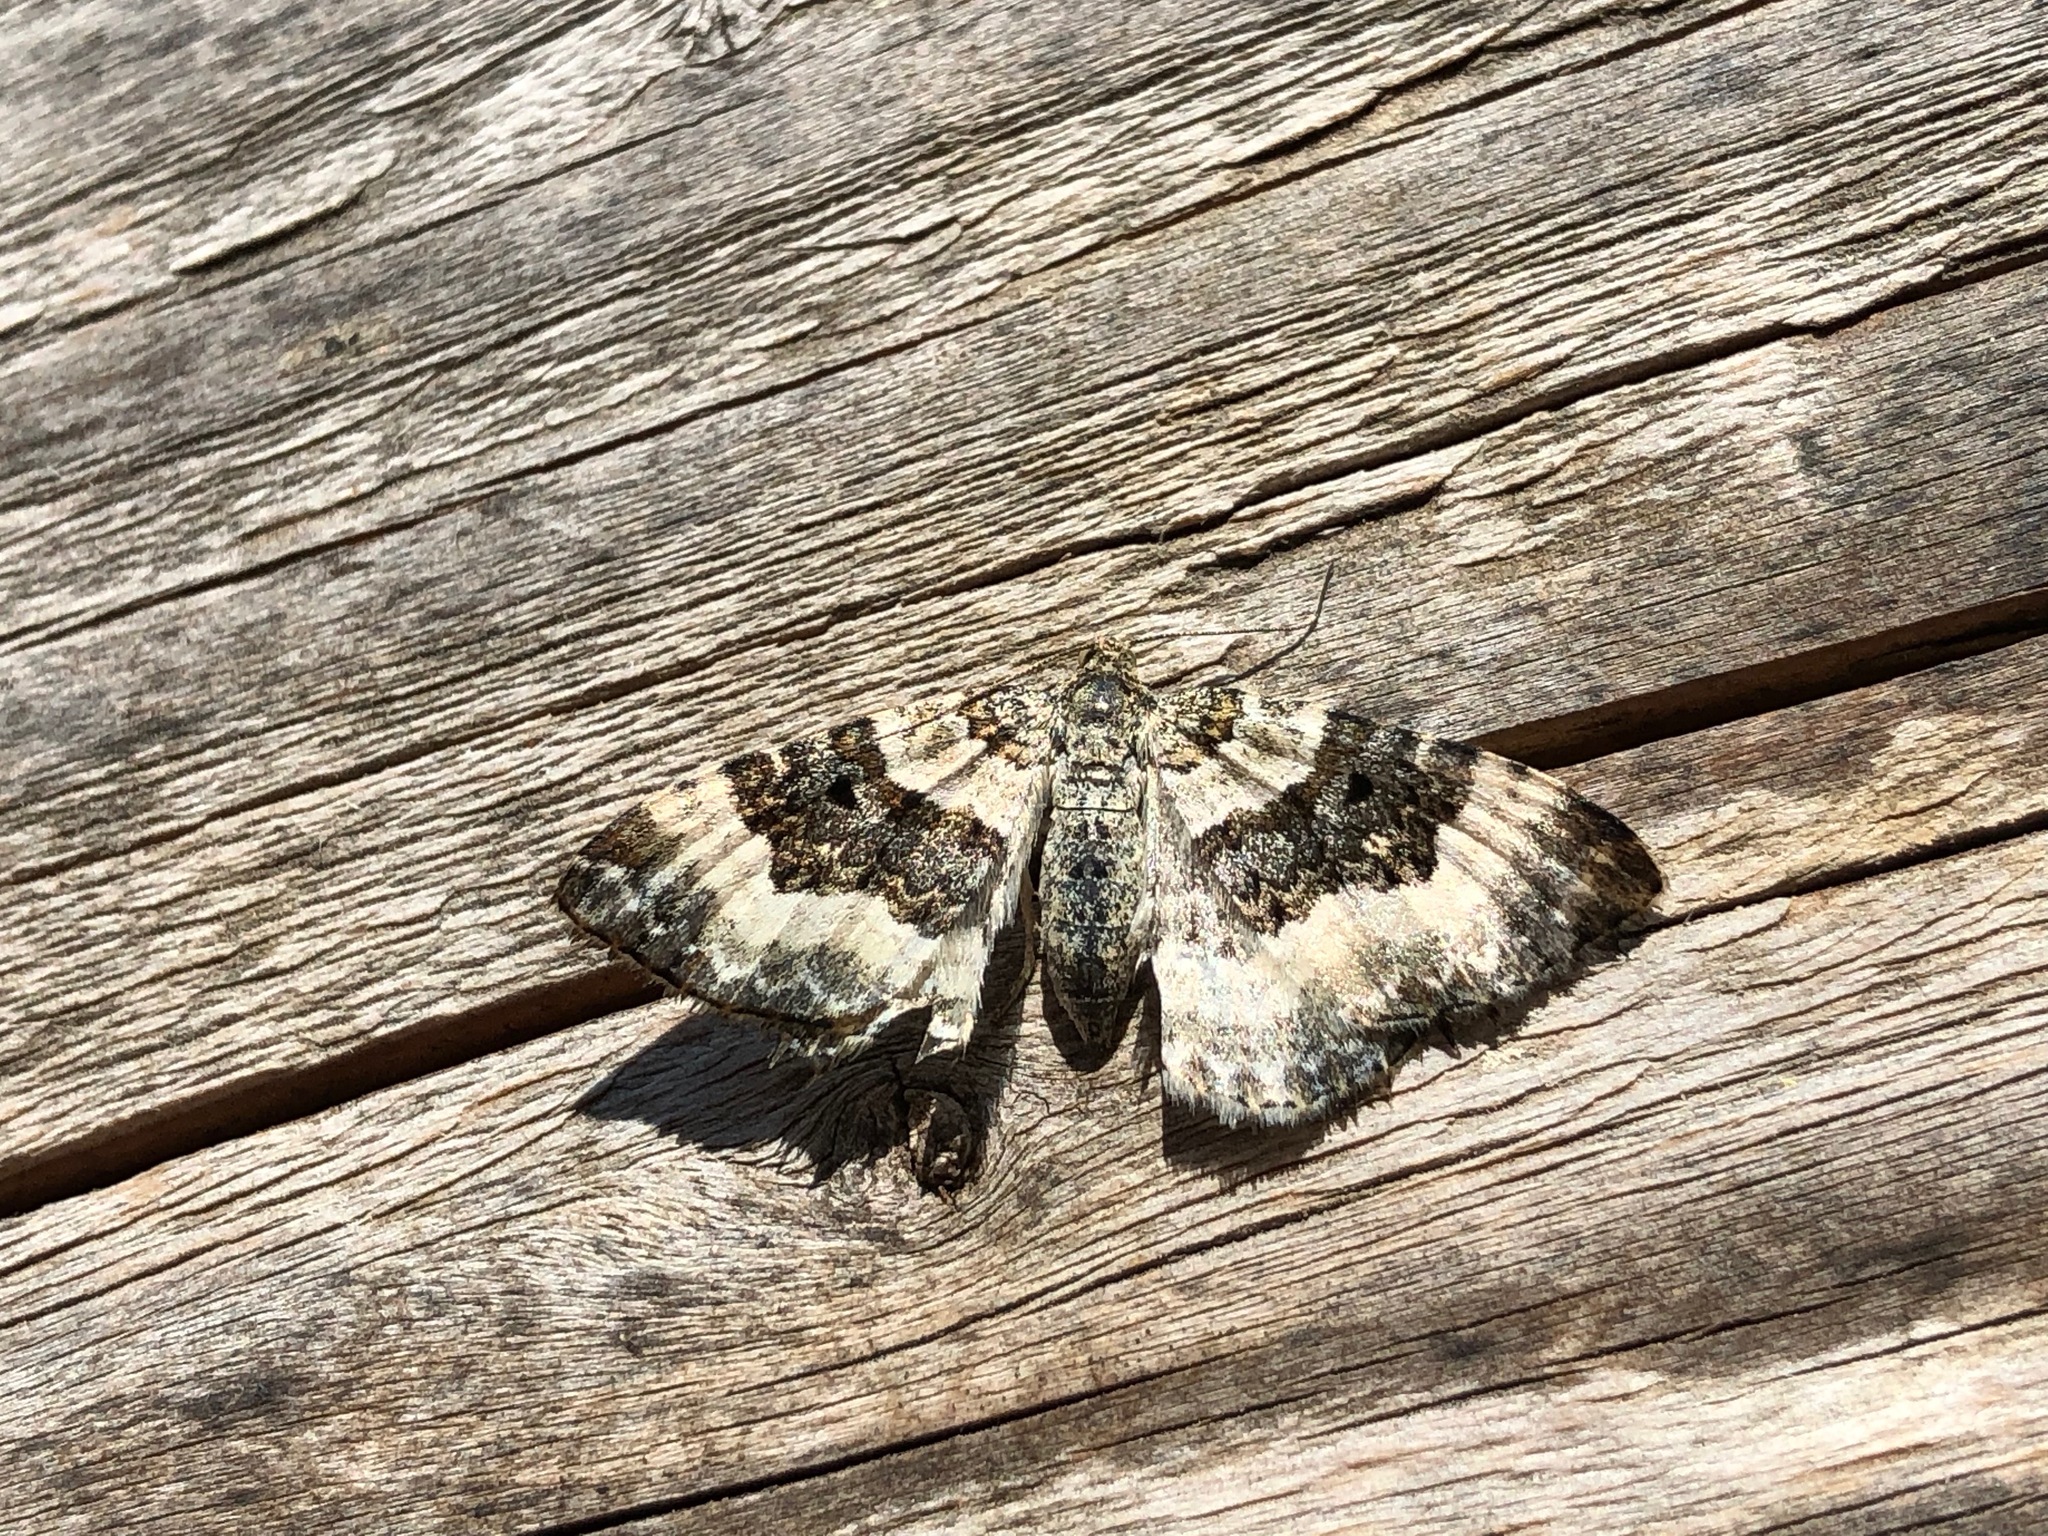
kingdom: Animalia
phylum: Arthropoda
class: Insecta
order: Lepidoptera
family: Geometridae
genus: Epirrhoe
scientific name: Epirrhoe alternata
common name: Common carpet
